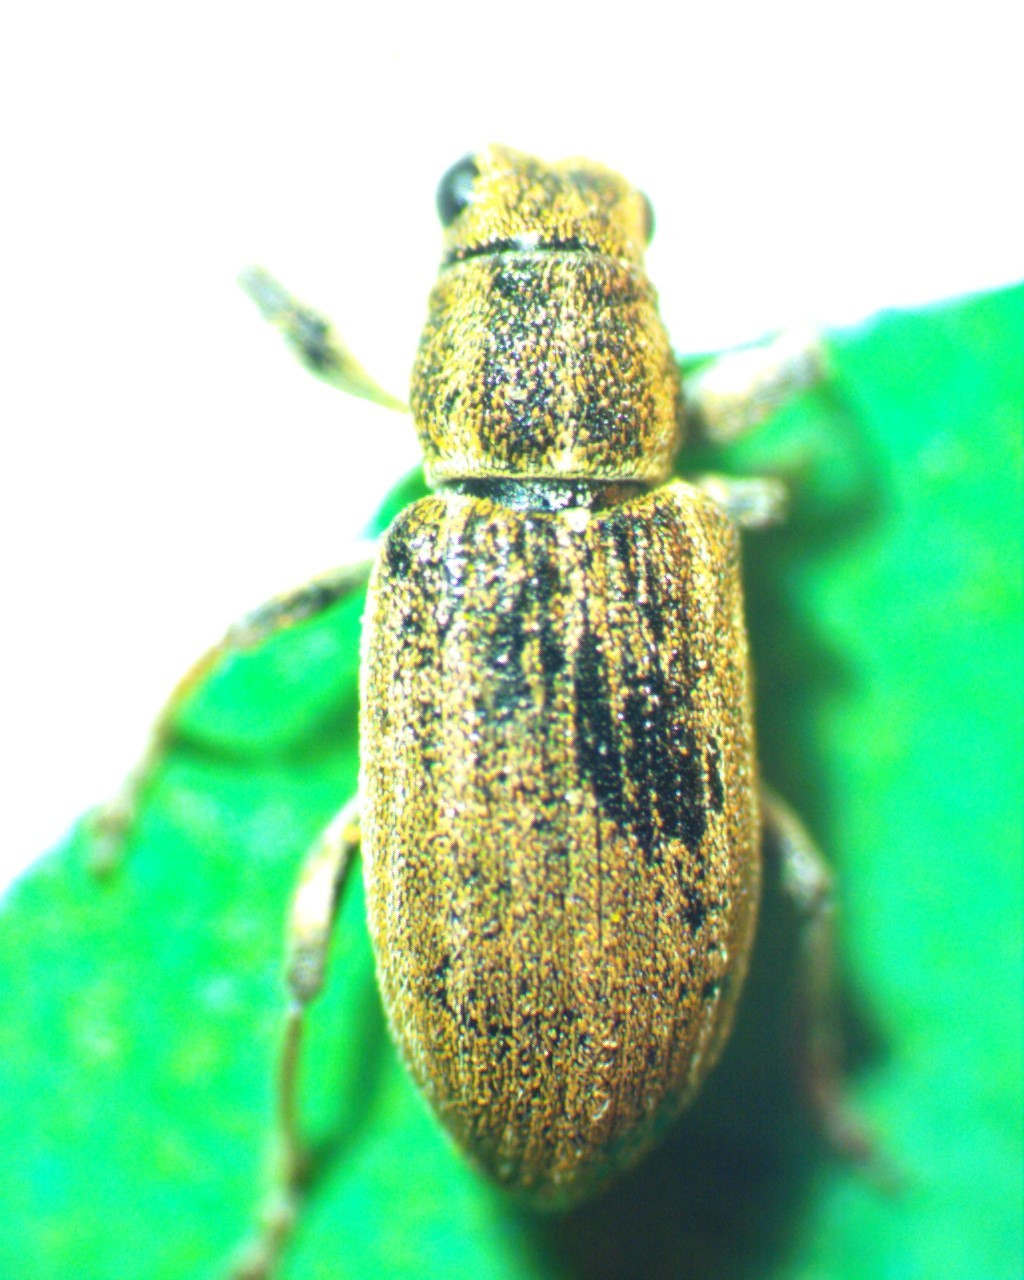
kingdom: Animalia
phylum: Arthropoda
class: Insecta
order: Coleoptera
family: Curculionidae
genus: Sitona
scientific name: Sitona lineatus
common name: Weevil
